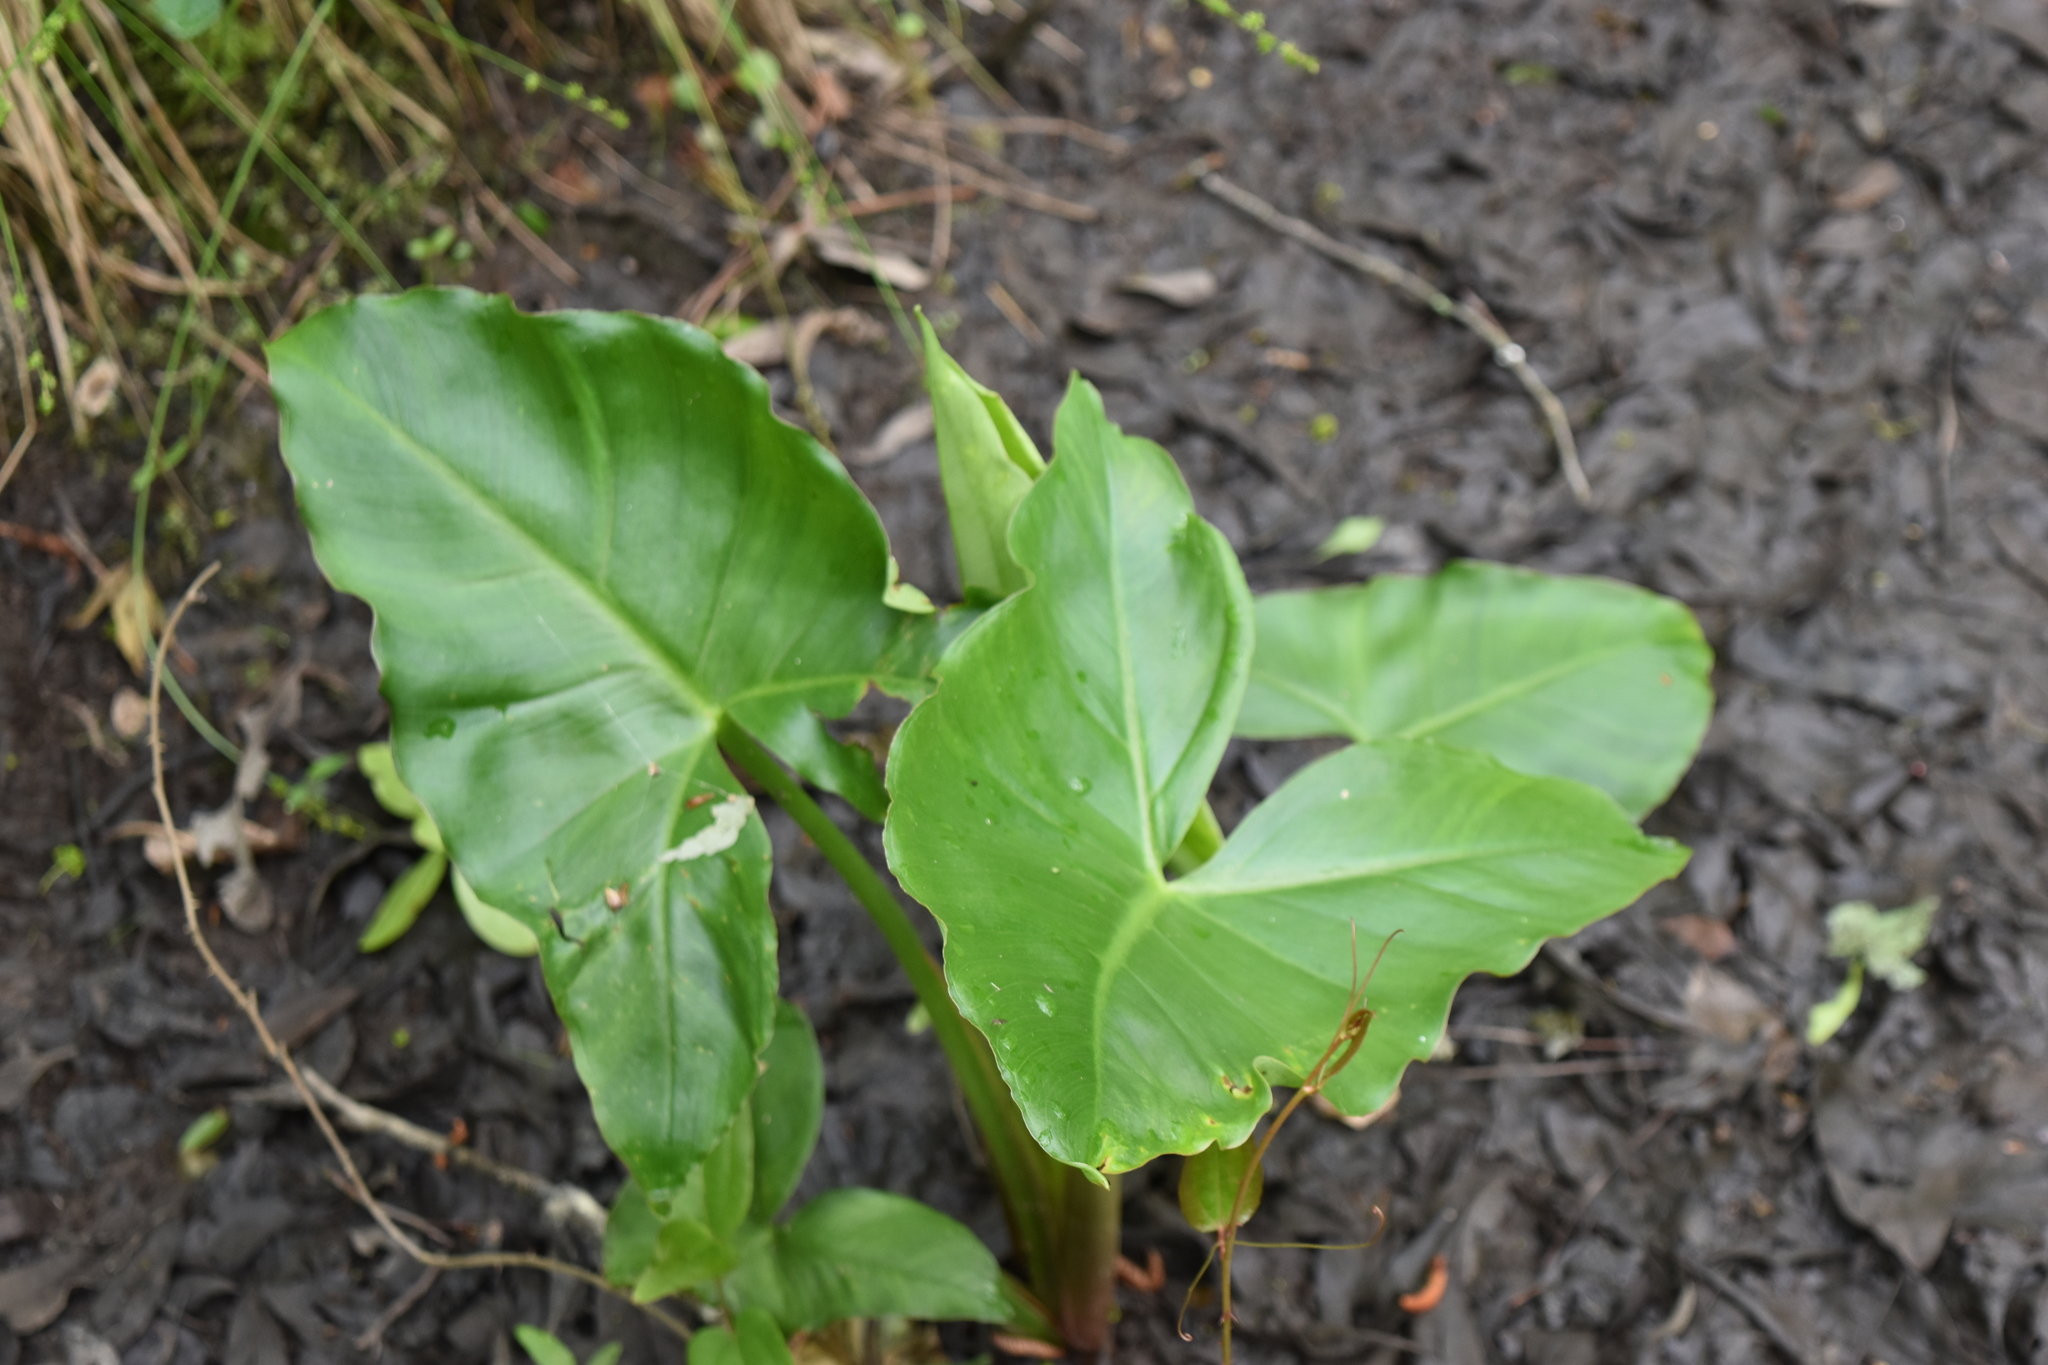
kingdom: Plantae
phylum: Tracheophyta
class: Liliopsida
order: Alismatales
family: Araceae
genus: Peltandra
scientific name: Peltandra virginica
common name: Arrow arum
